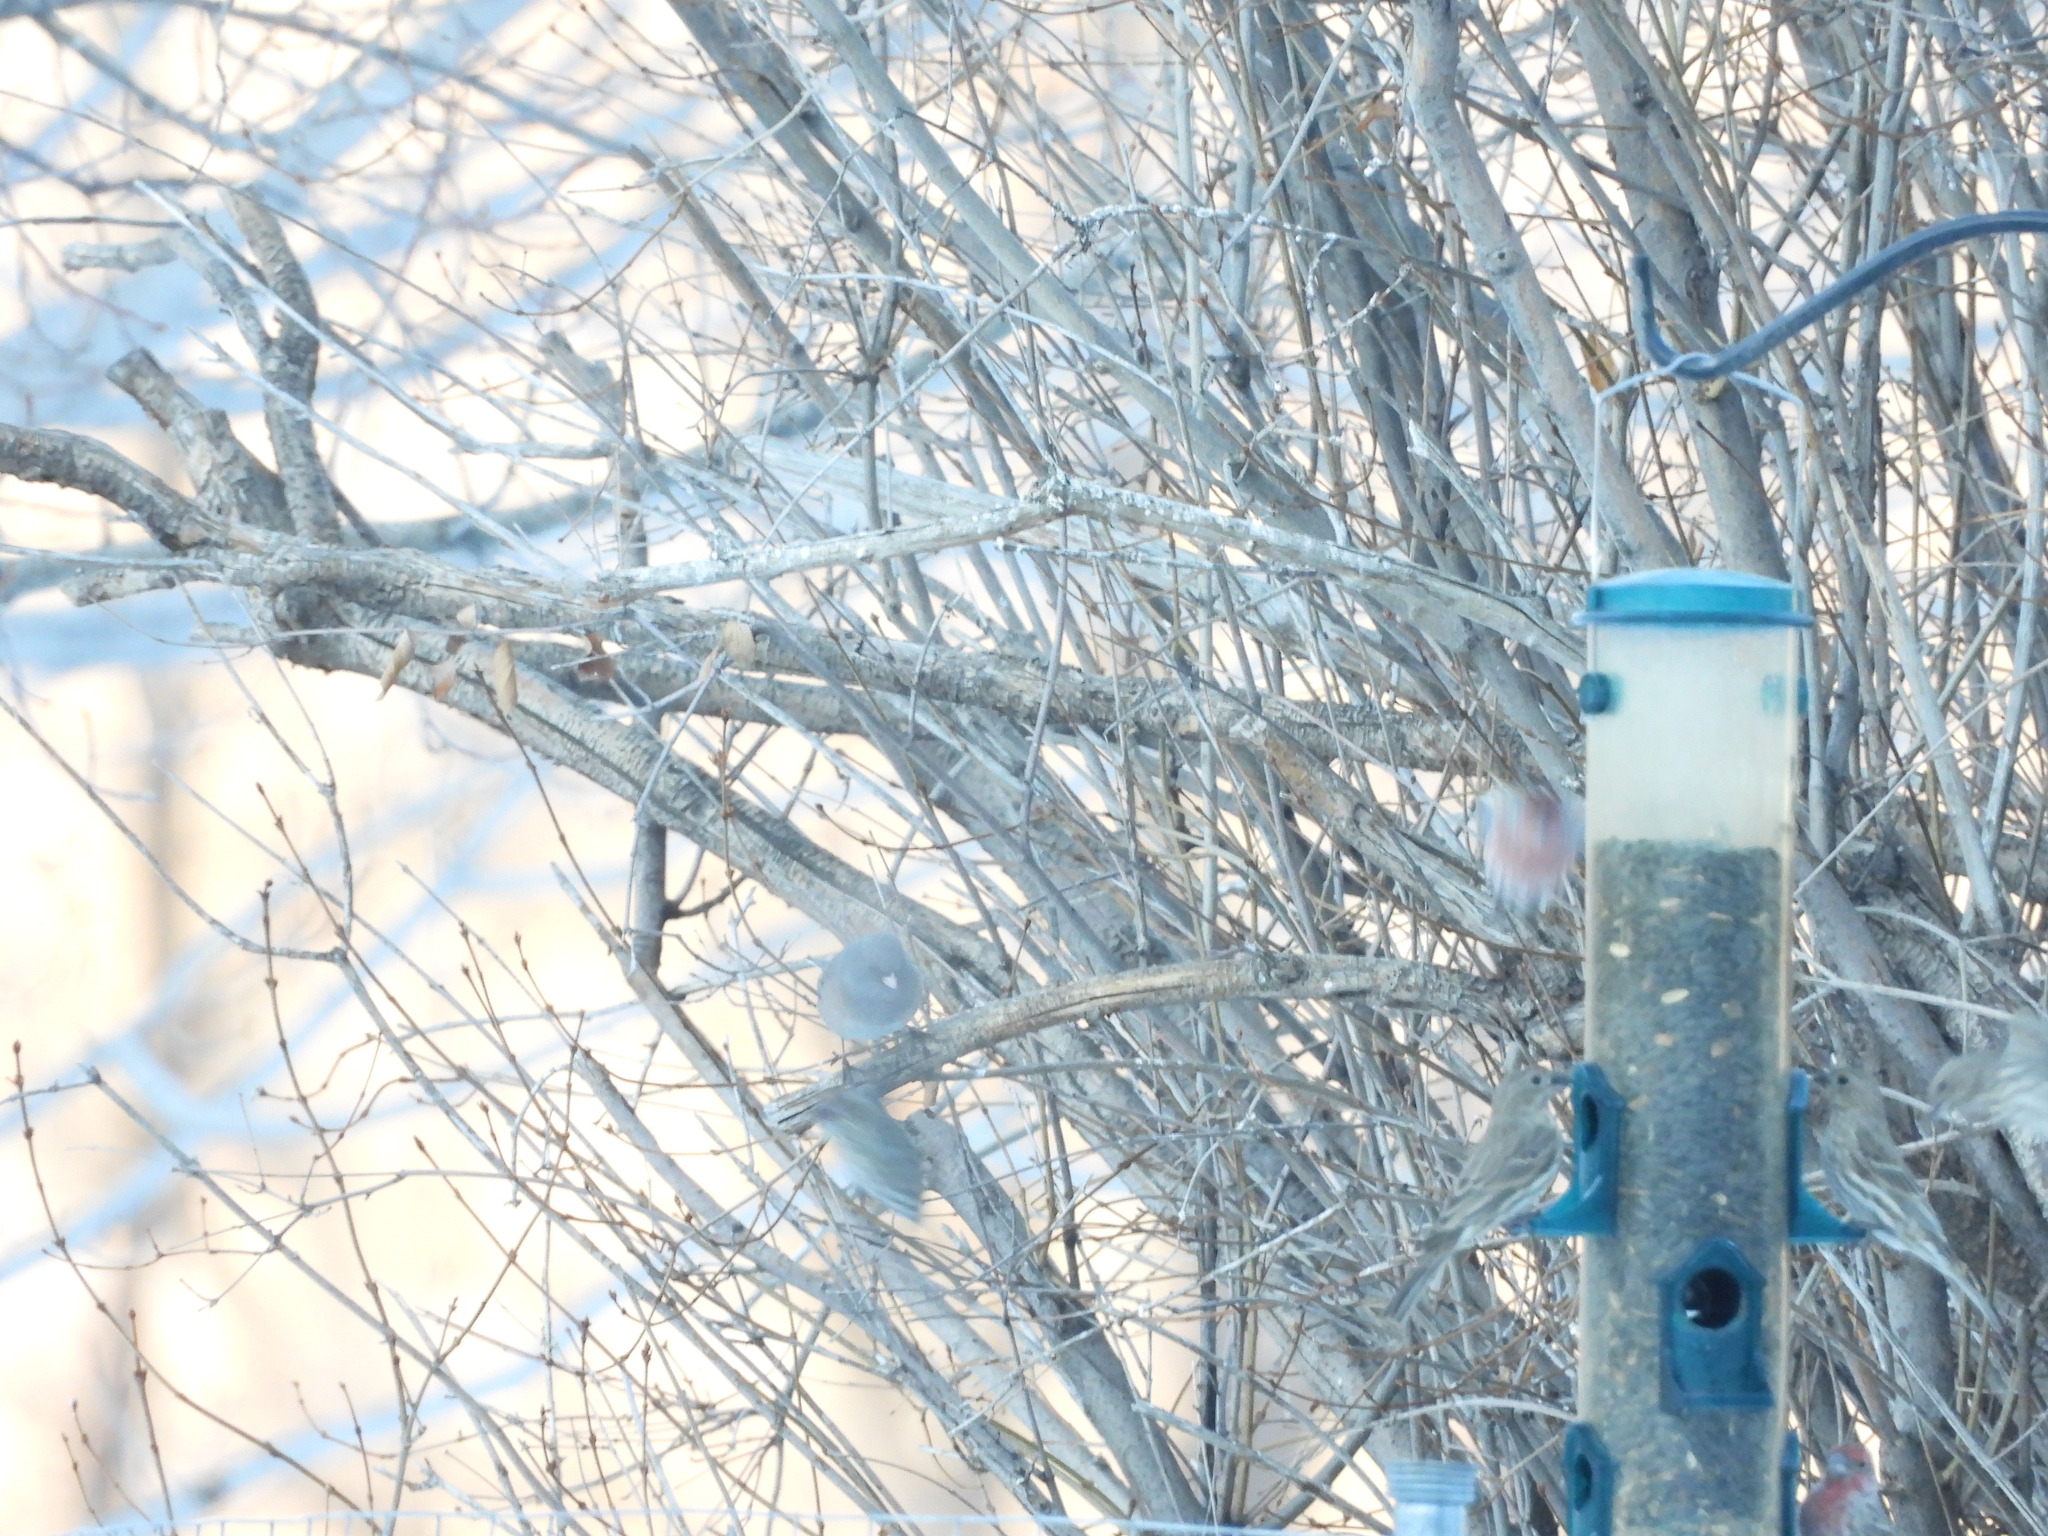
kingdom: Animalia
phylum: Chordata
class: Aves
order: Passeriformes
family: Passerellidae
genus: Junco
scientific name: Junco hyemalis
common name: Dark-eyed junco
